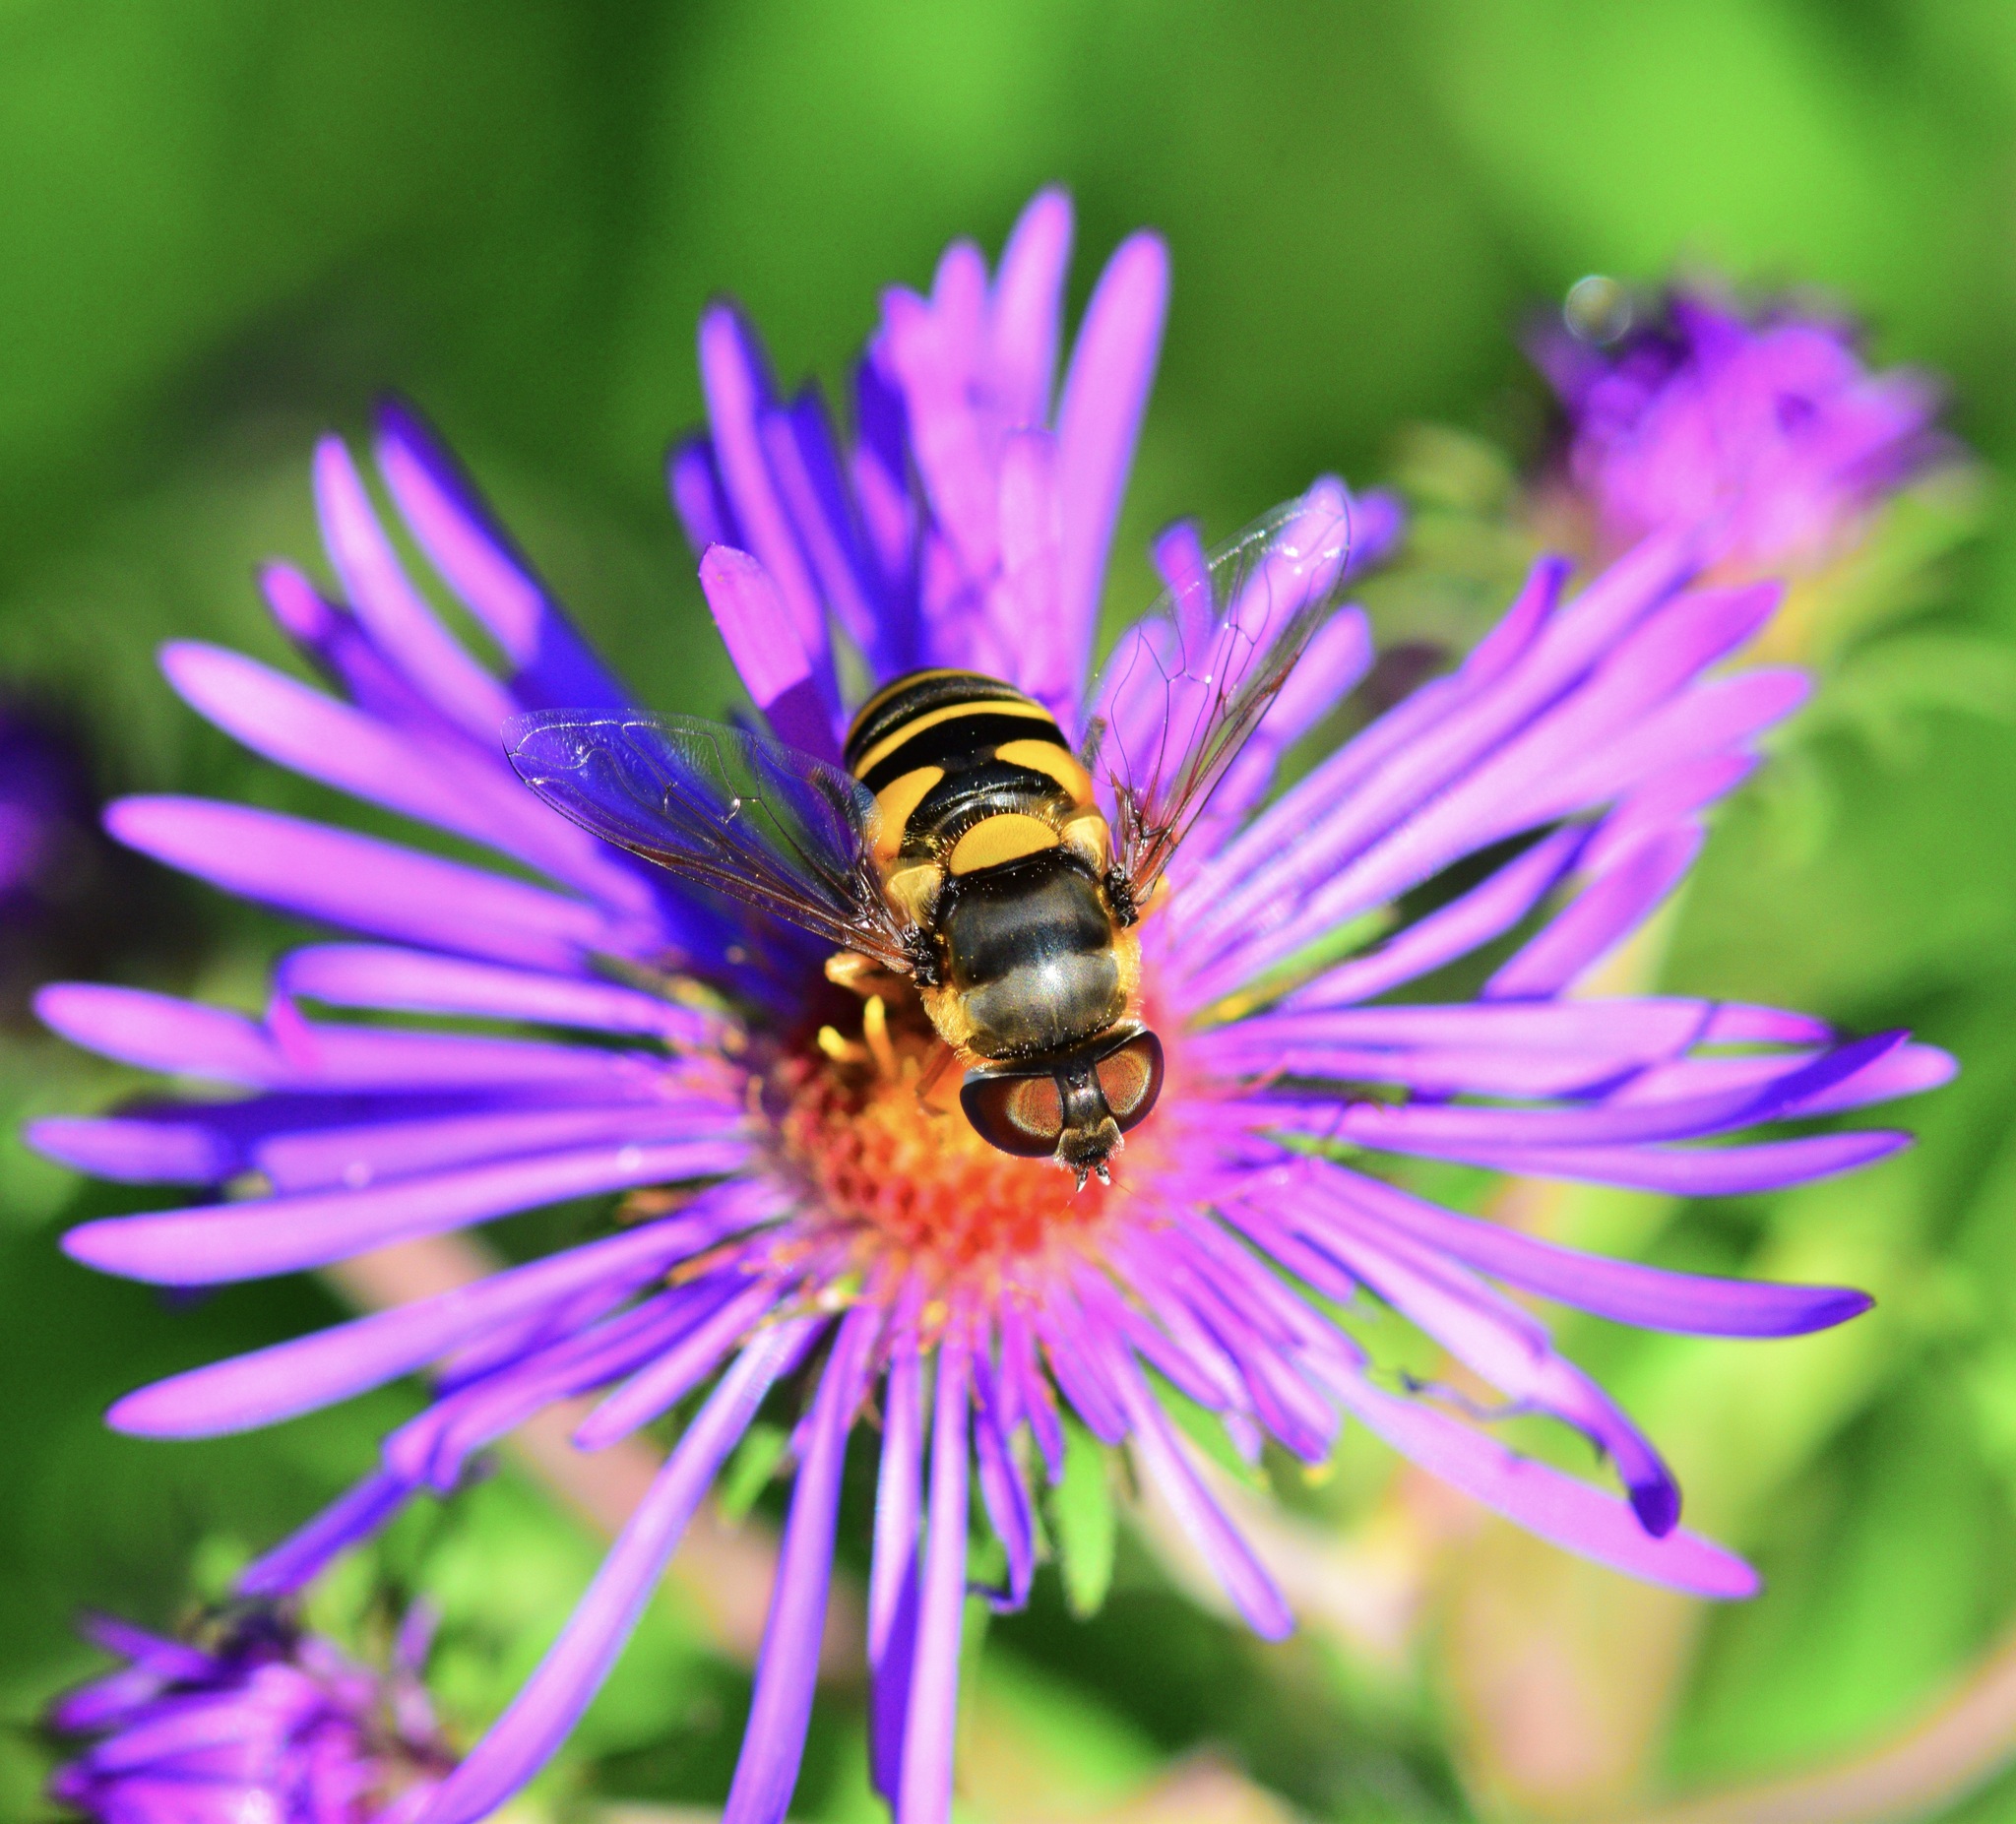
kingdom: Animalia
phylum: Arthropoda
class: Insecta
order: Diptera
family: Syrphidae
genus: Eristalis
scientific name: Eristalis transversa
